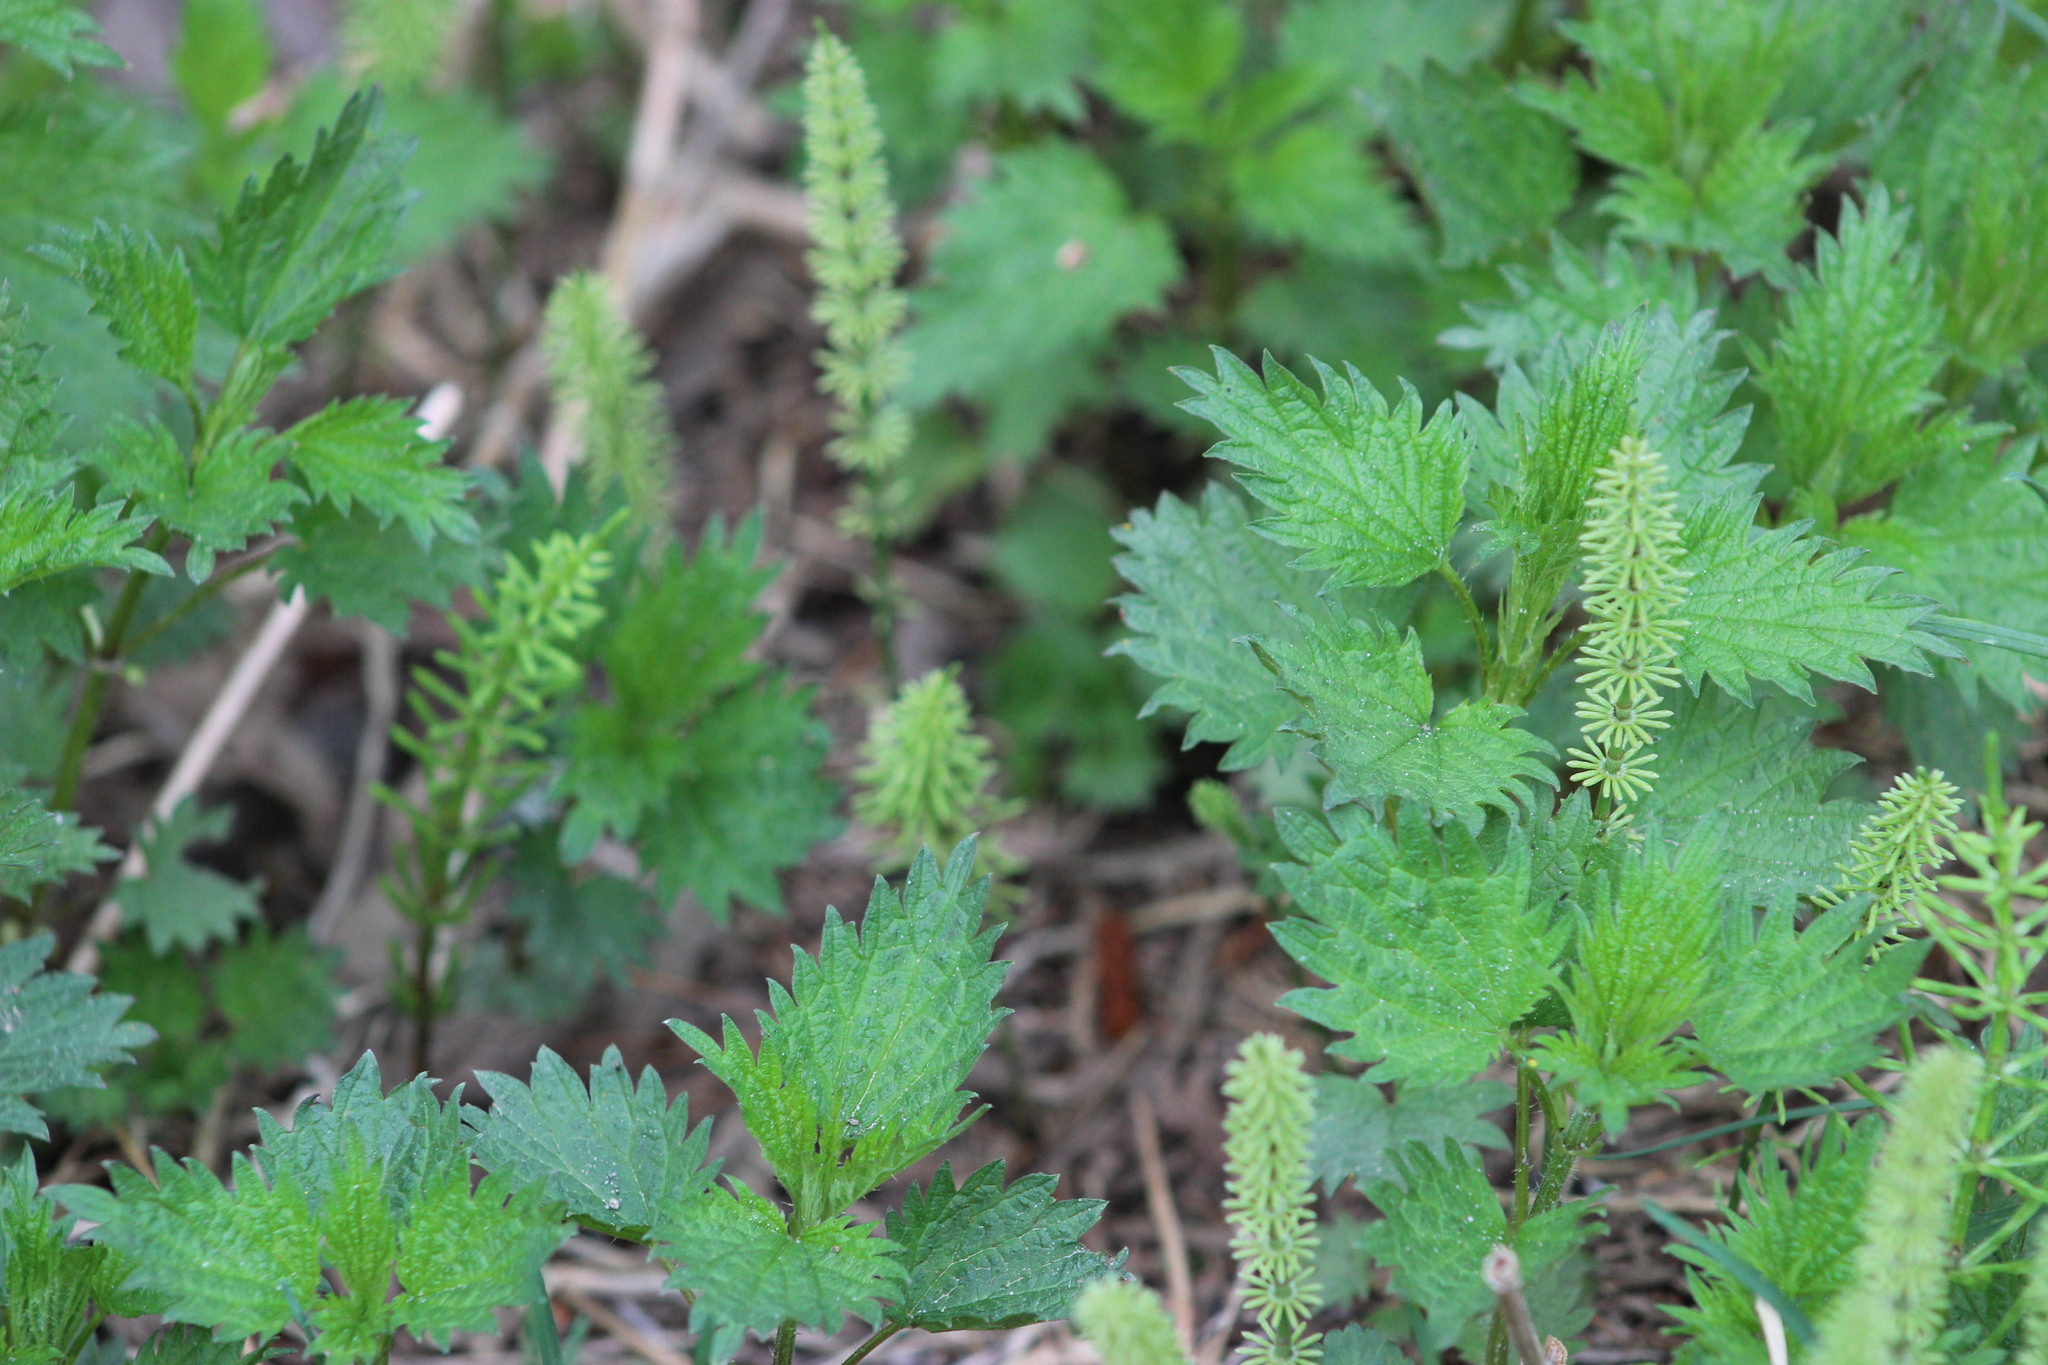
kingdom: Plantae
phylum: Tracheophyta
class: Polypodiopsida
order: Equisetales
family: Equisetaceae
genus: Equisetum
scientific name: Equisetum pratense
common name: Meadow horsetail
